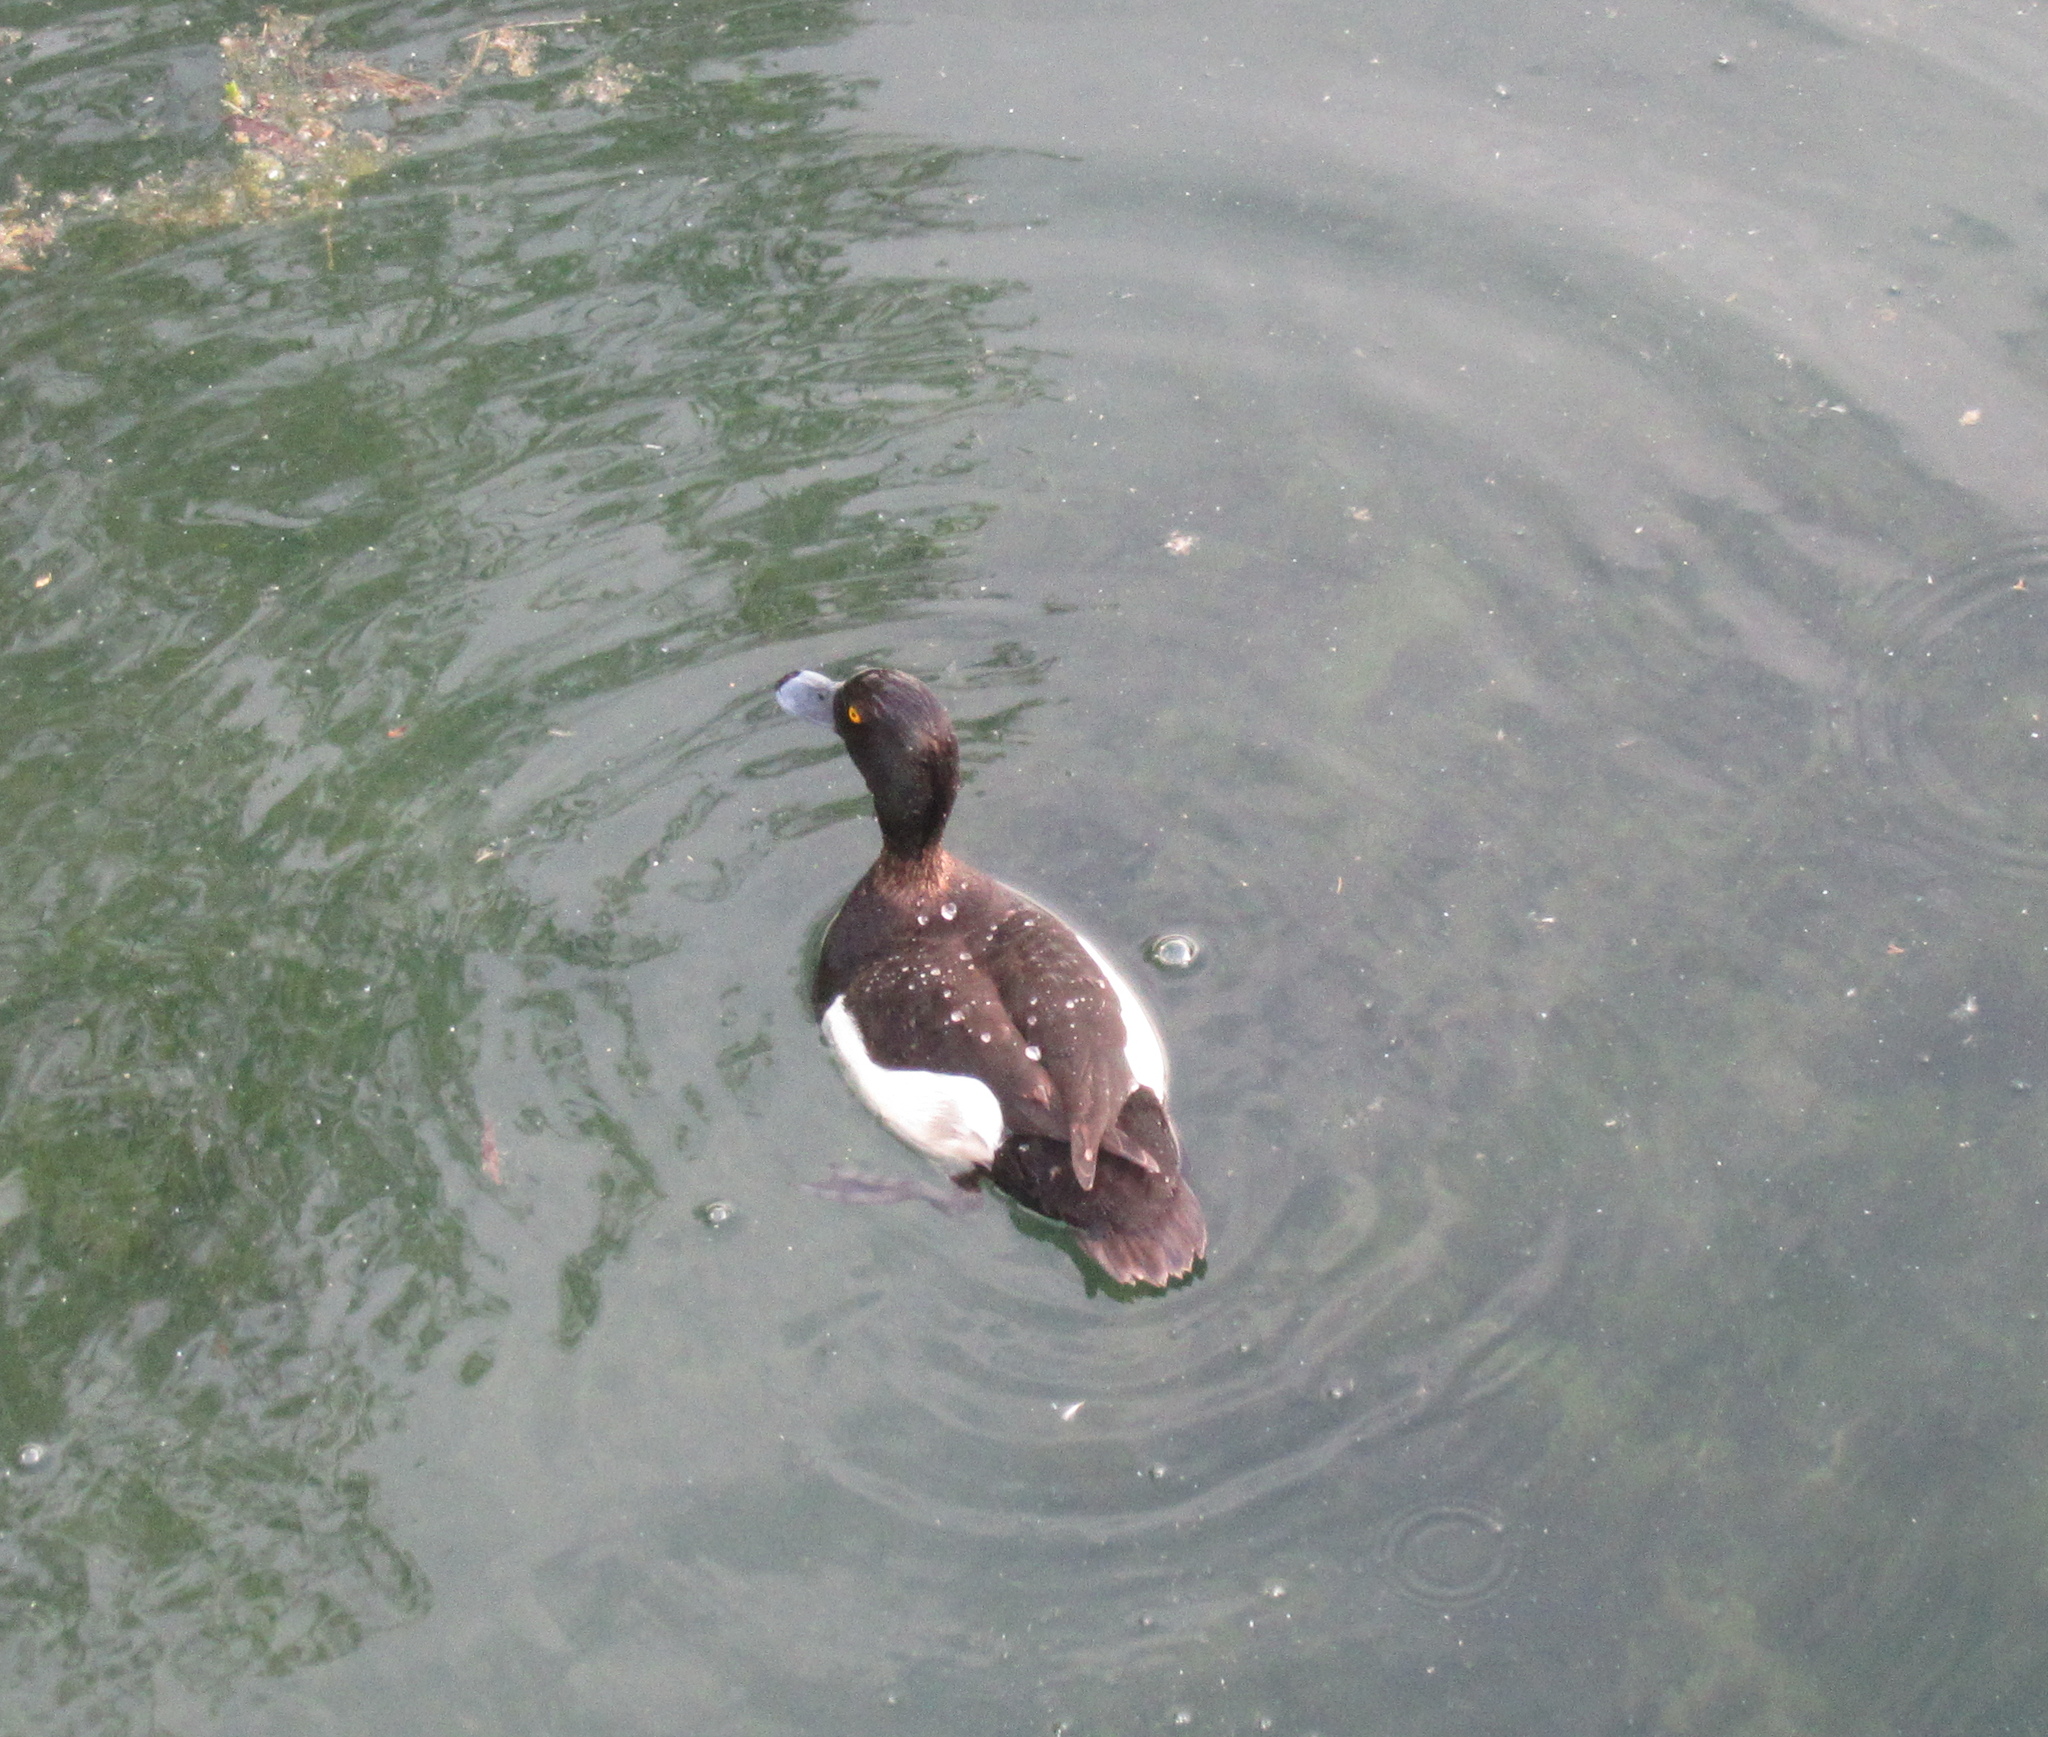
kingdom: Animalia
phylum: Chordata
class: Aves
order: Anseriformes
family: Anatidae
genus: Aythya
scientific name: Aythya fuligula
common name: Tufted duck
